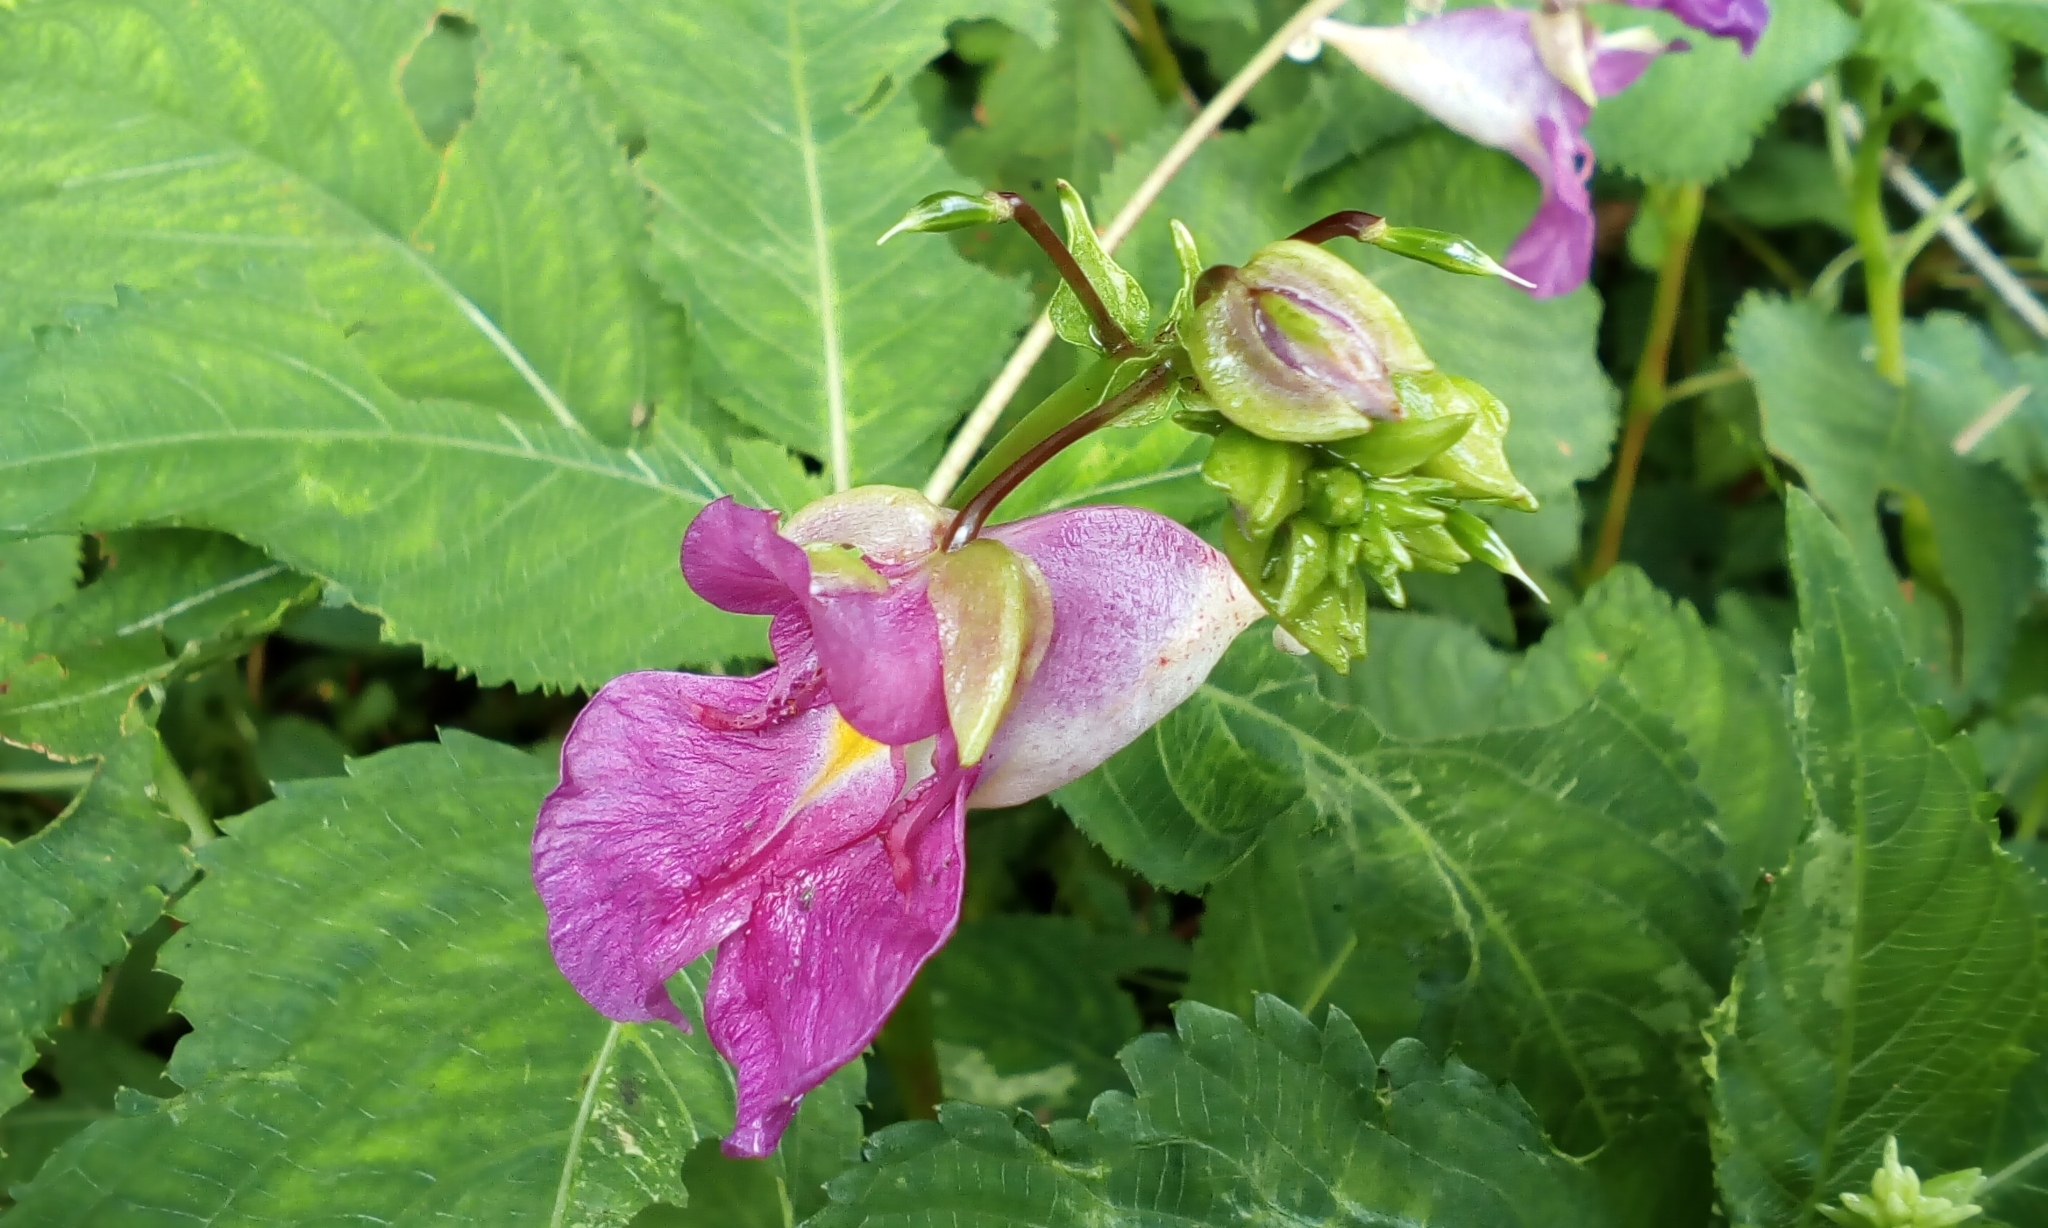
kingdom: Plantae
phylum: Tracheophyta
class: Magnoliopsida
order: Ericales
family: Balsaminaceae
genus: Impatiens
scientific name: Impatiens textorii
